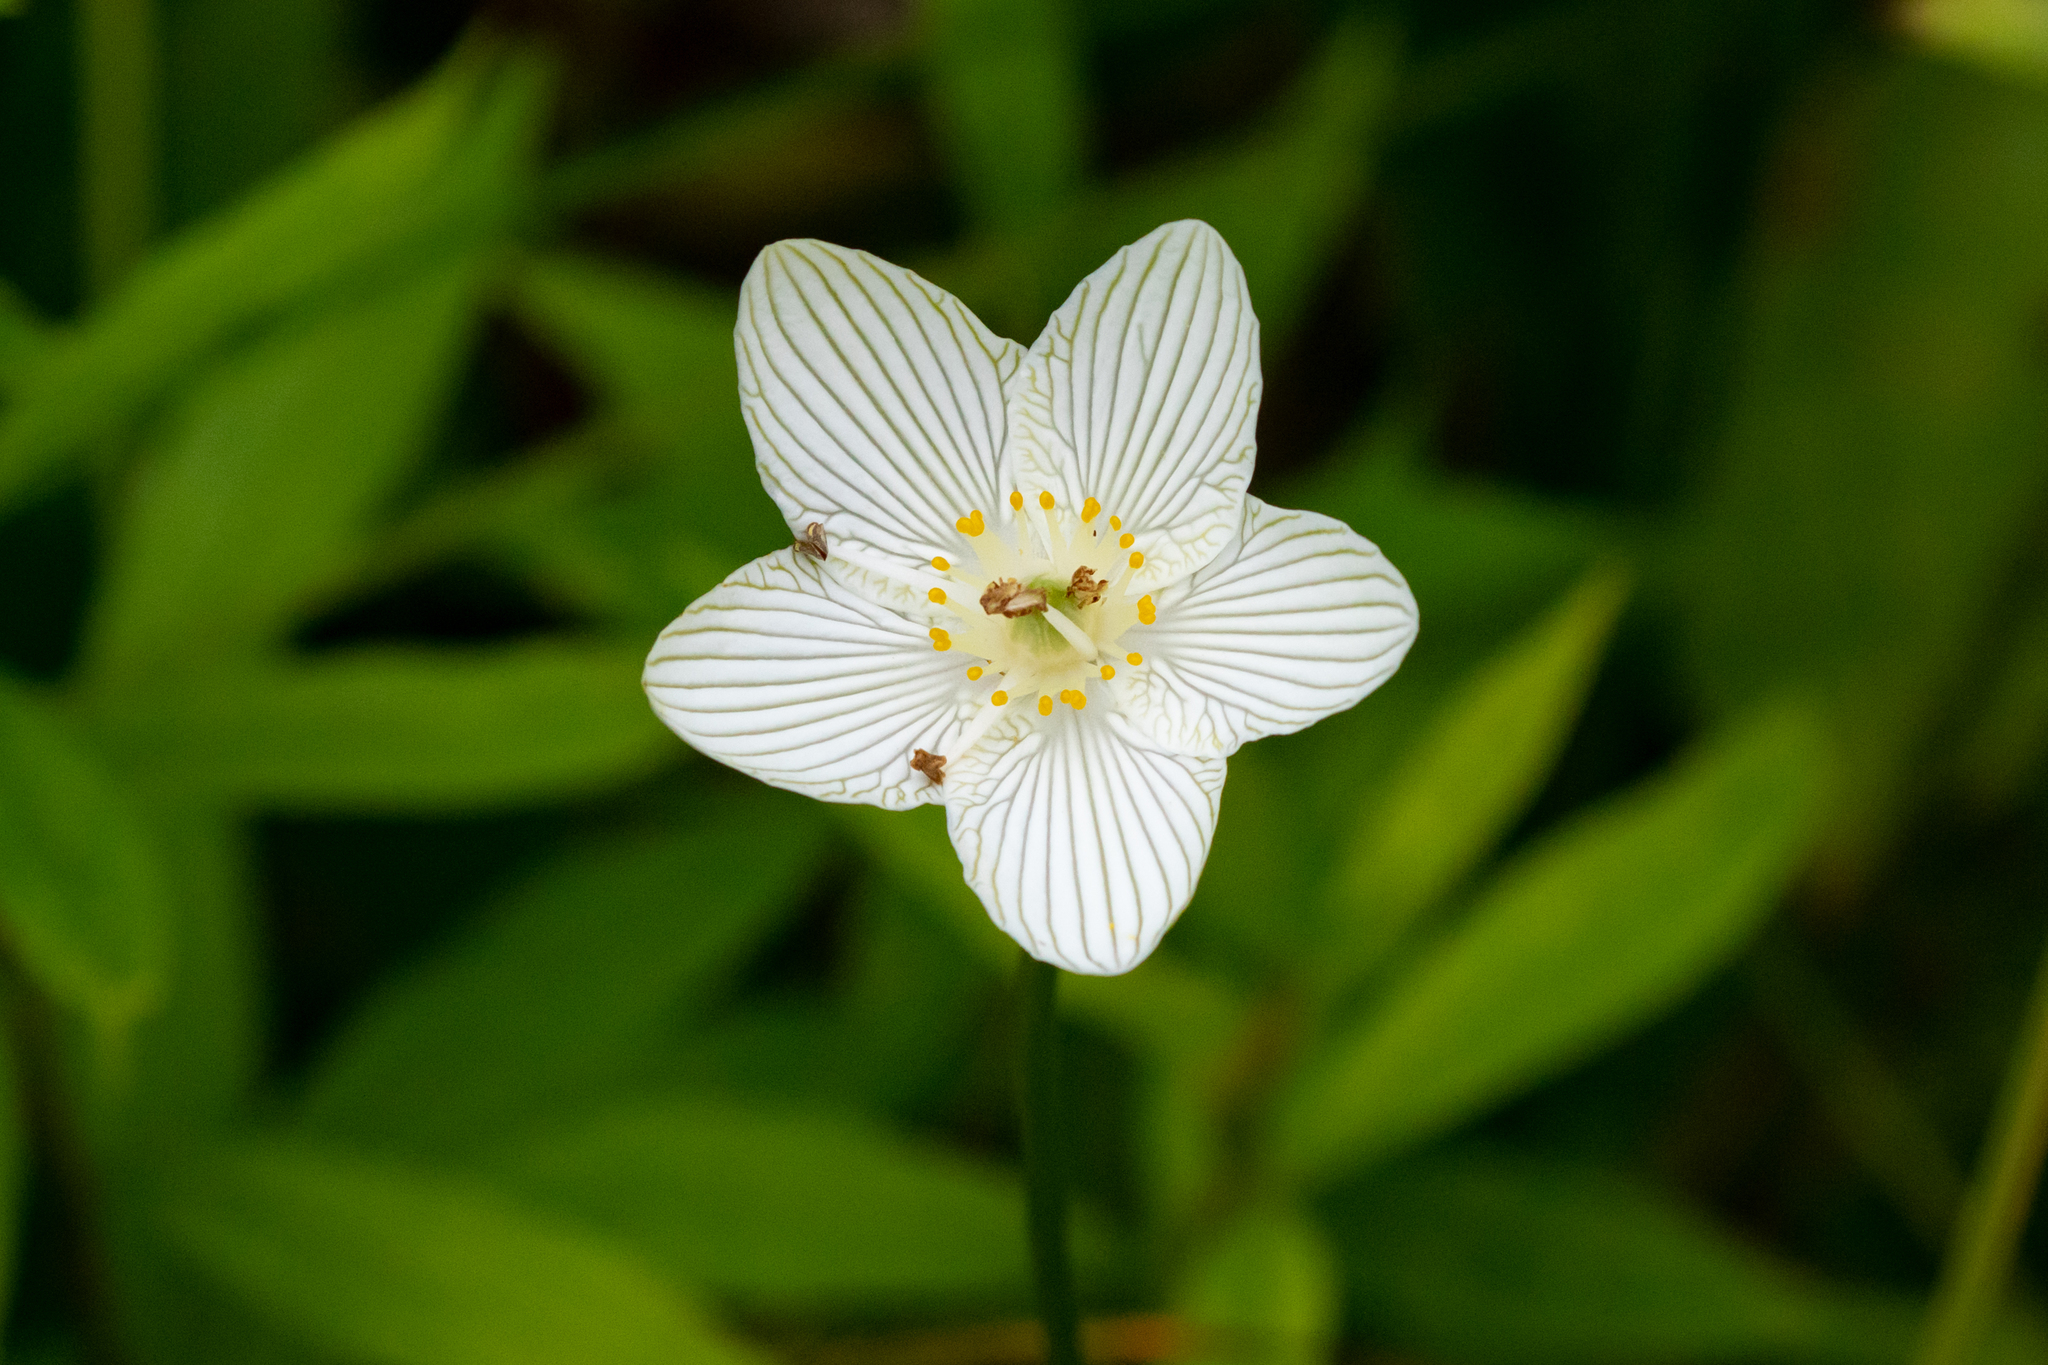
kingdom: Plantae
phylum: Tracheophyta
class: Magnoliopsida
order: Celastrales
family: Parnassiaceae
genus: Parnassia
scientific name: Parnassia glauca
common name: American grass-of-parnassus
